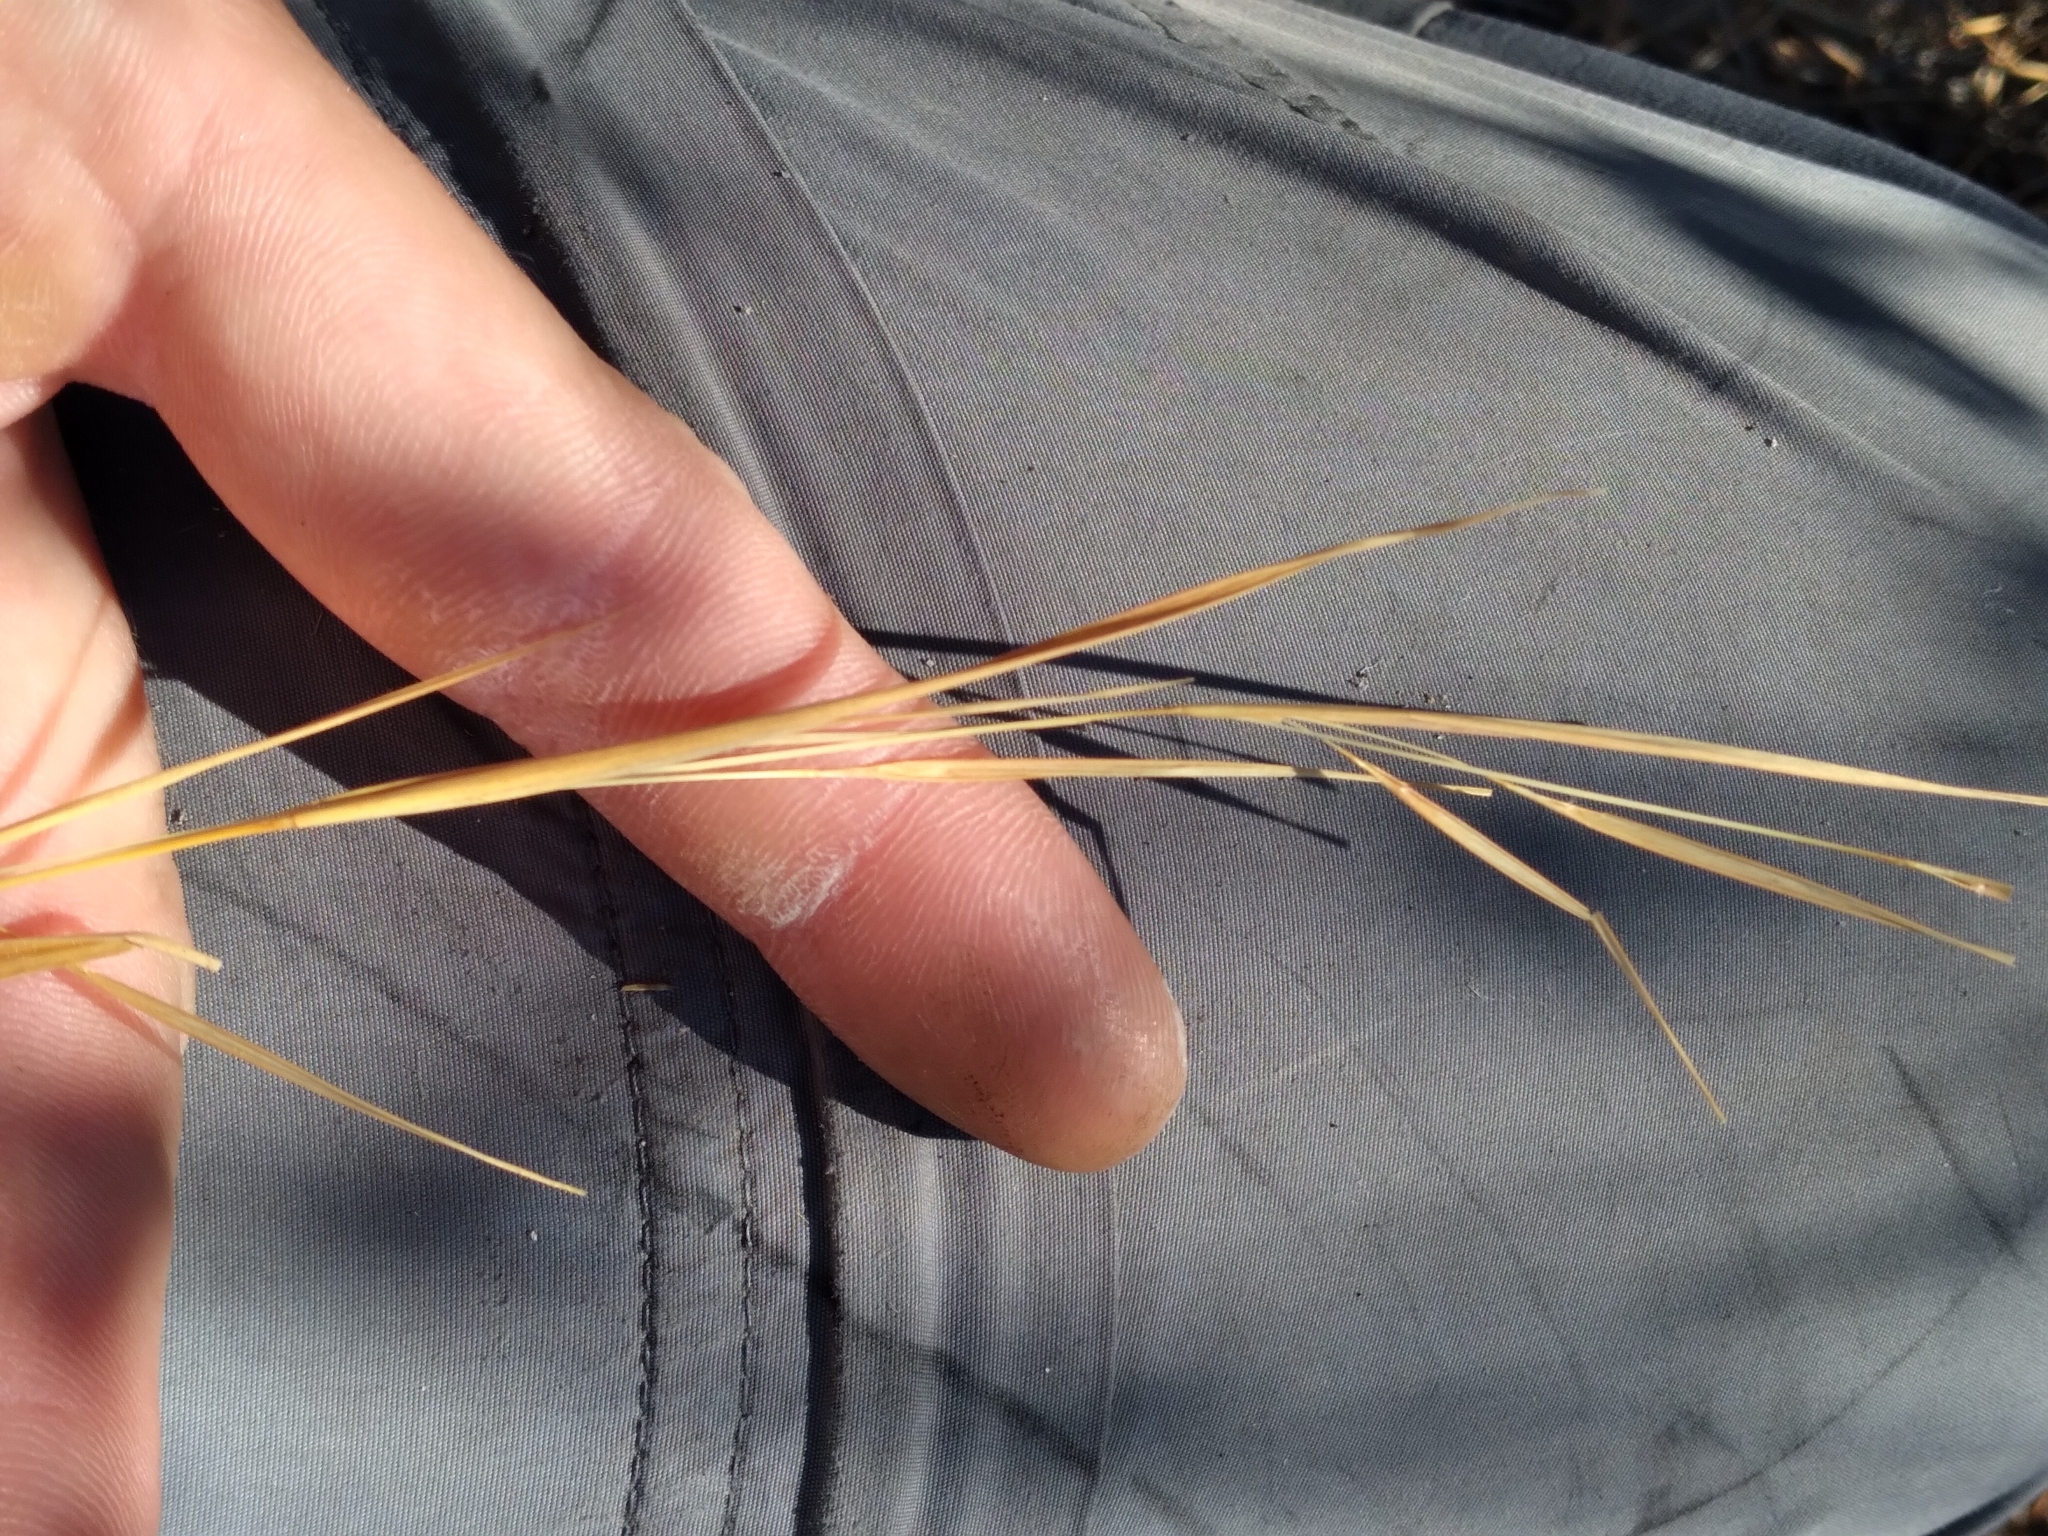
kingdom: Plantae
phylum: Tracheophyta
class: Liliopsida
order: Poales
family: Poaceae
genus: Andropogon
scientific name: Andropogon virginicus
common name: Broomsedge bluestem
